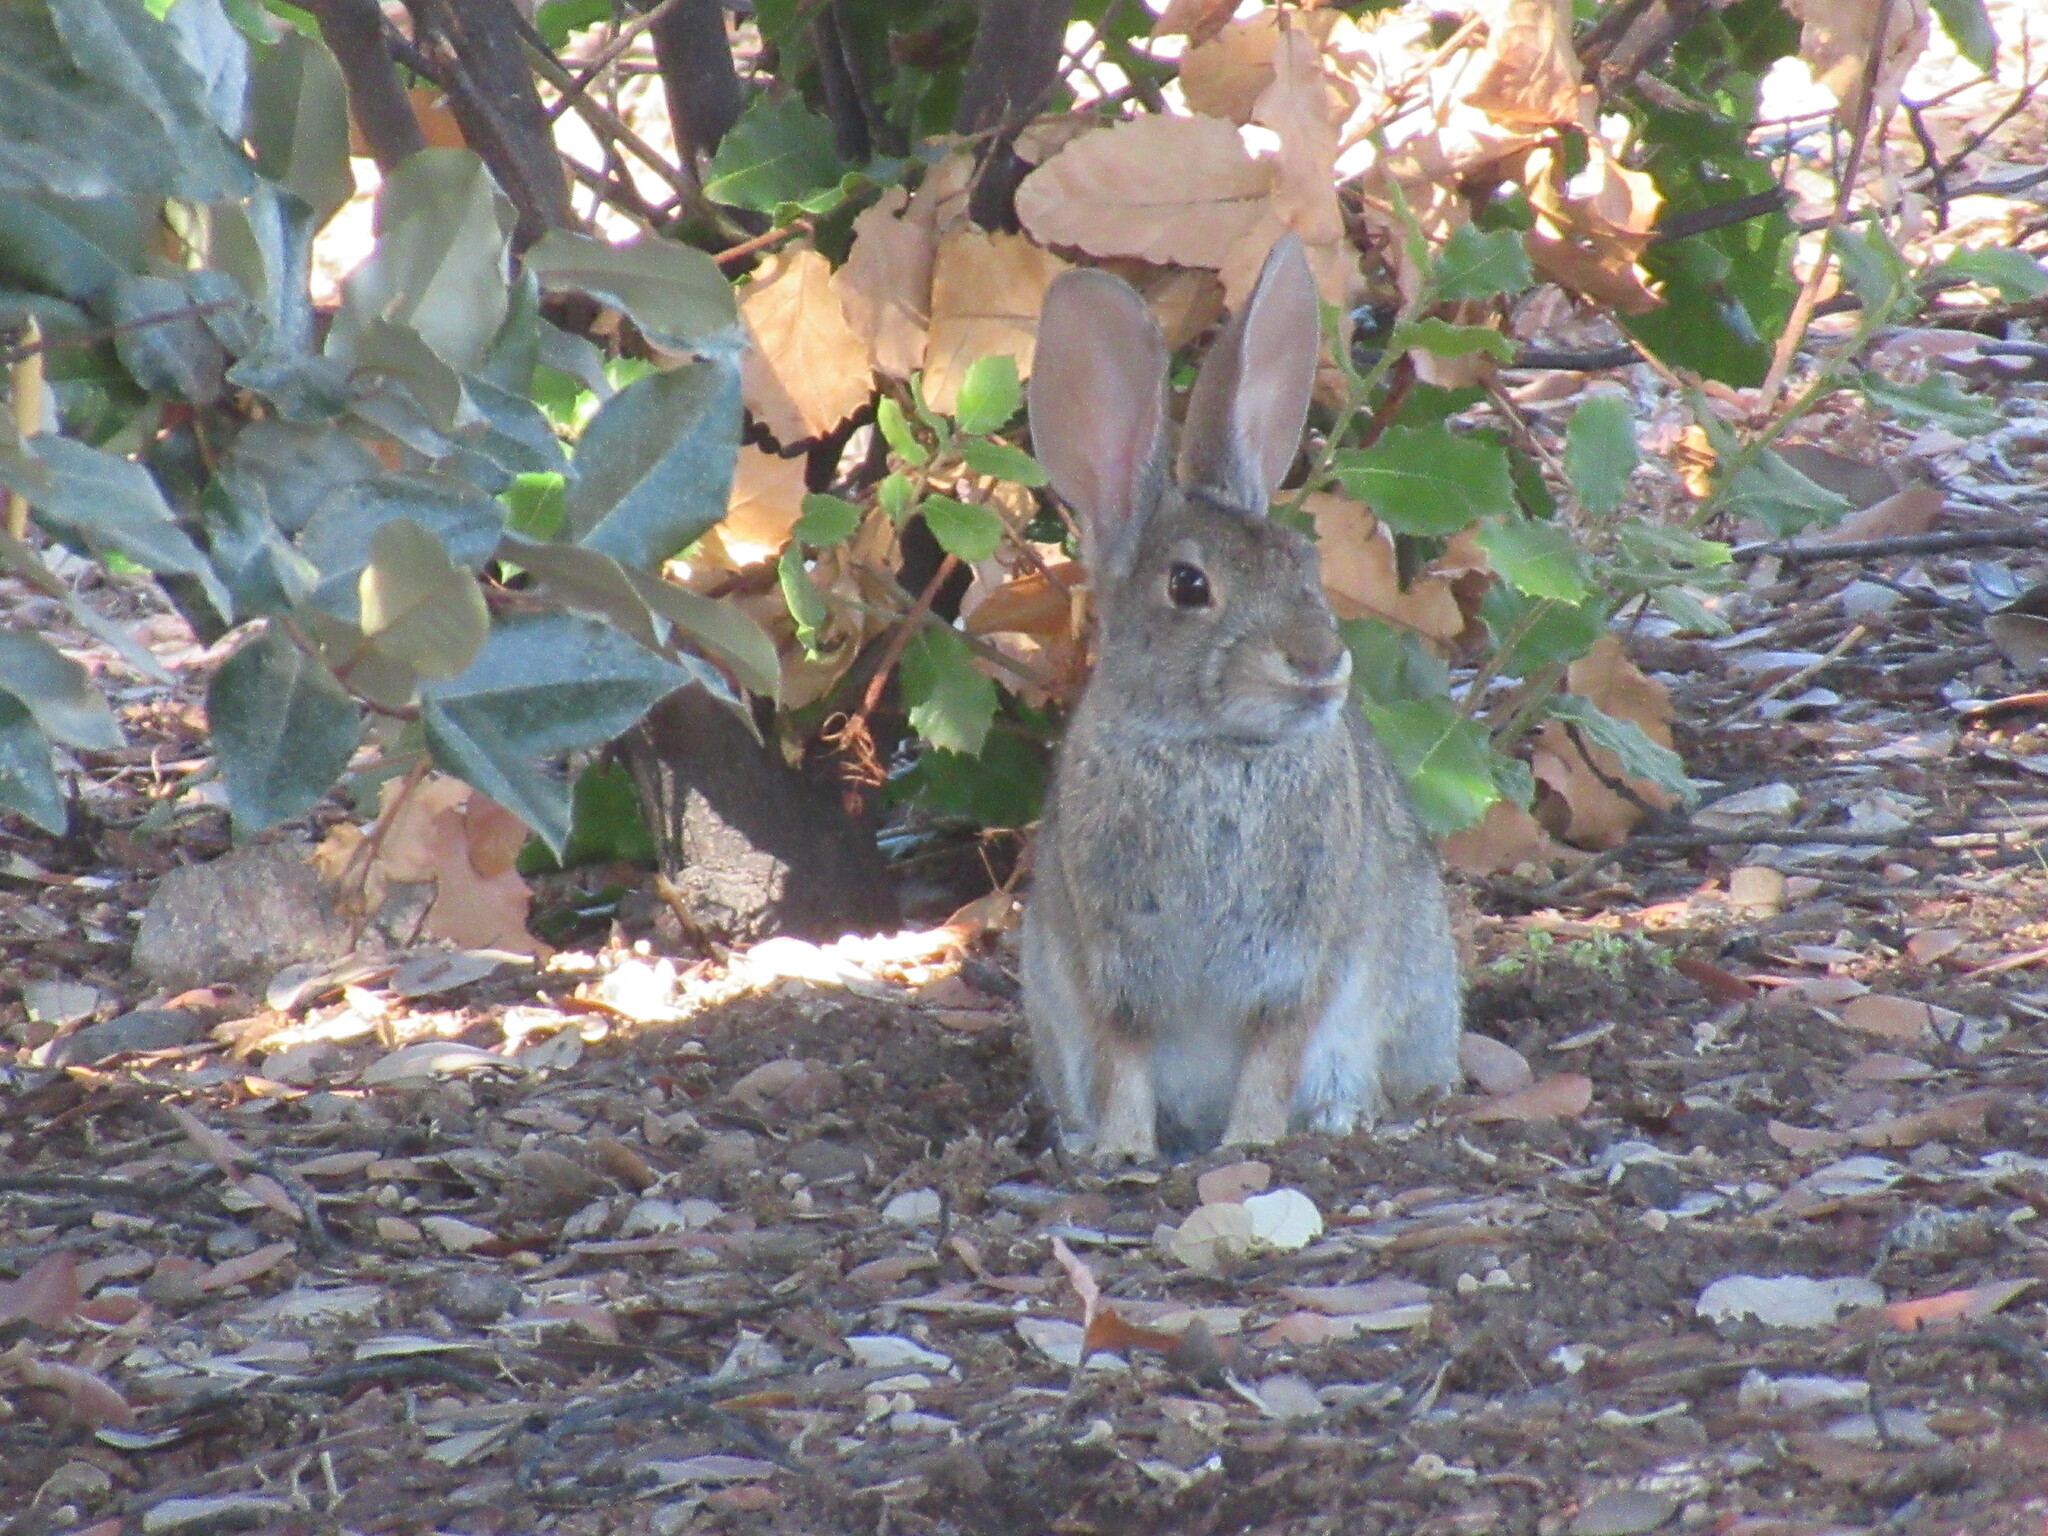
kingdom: Animalia
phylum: Chordata
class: Mammalia
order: Lagomorpha
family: Leporidae
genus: Sylvilagus
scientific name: Sylvilagus audubonii
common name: Desert cottontail
